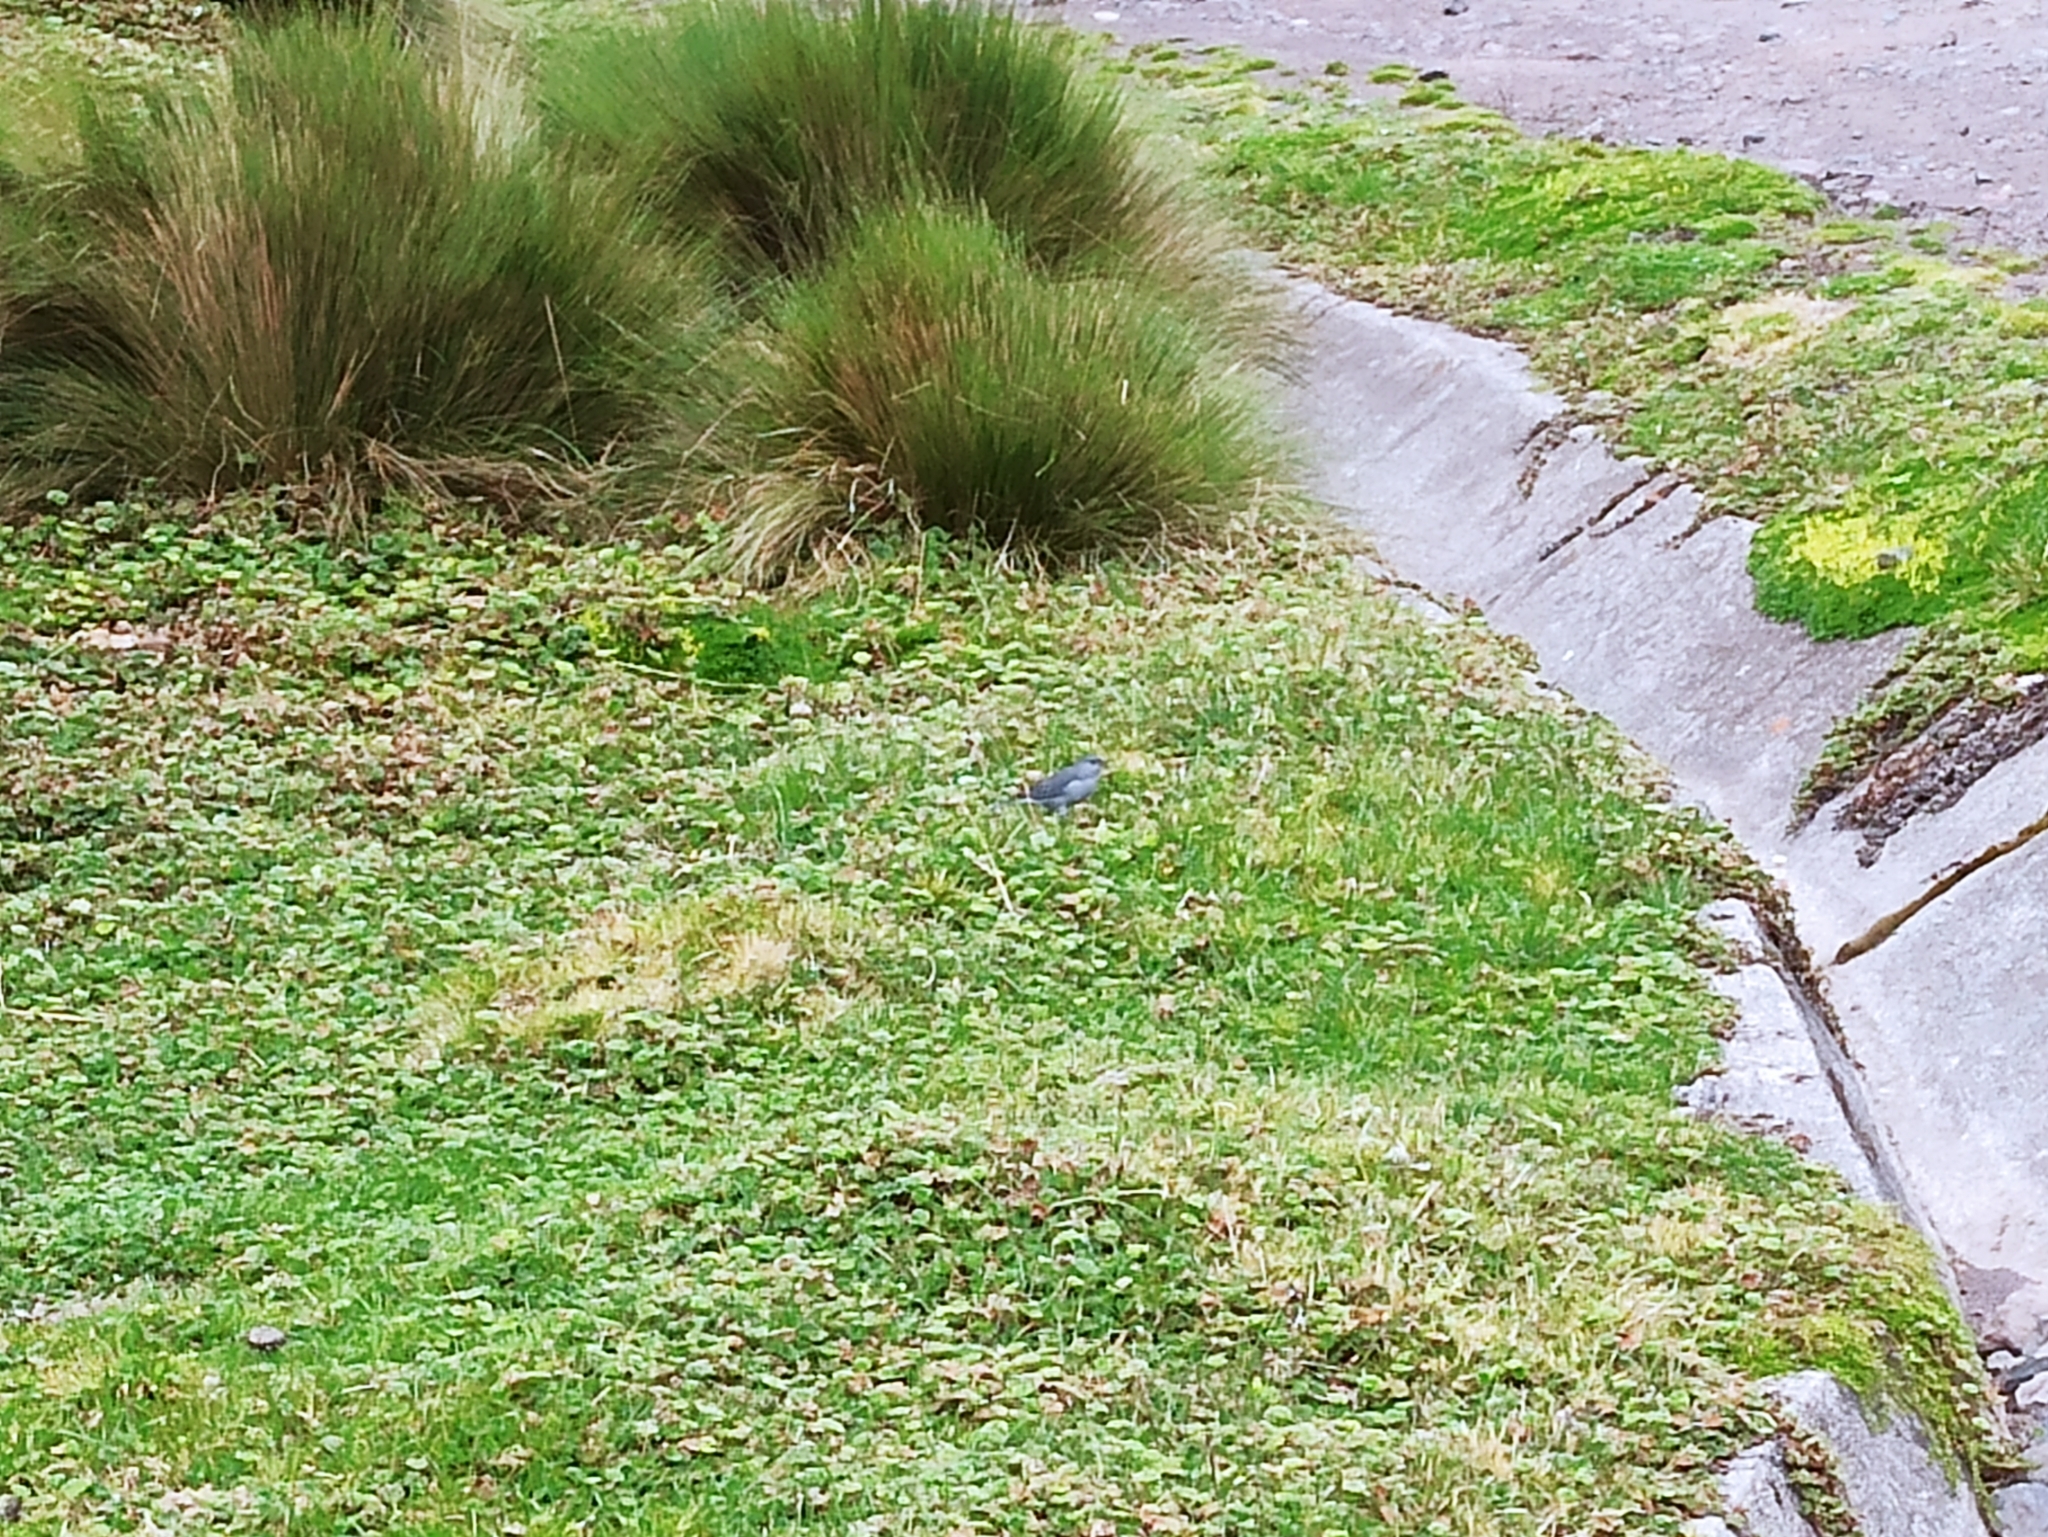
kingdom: Animalia
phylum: Chordata
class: Aves
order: Passeriformes
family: Thraupidae
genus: Geospizopsis
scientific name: Geospizopsis unicolor
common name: Plumbeous sierra-finch
